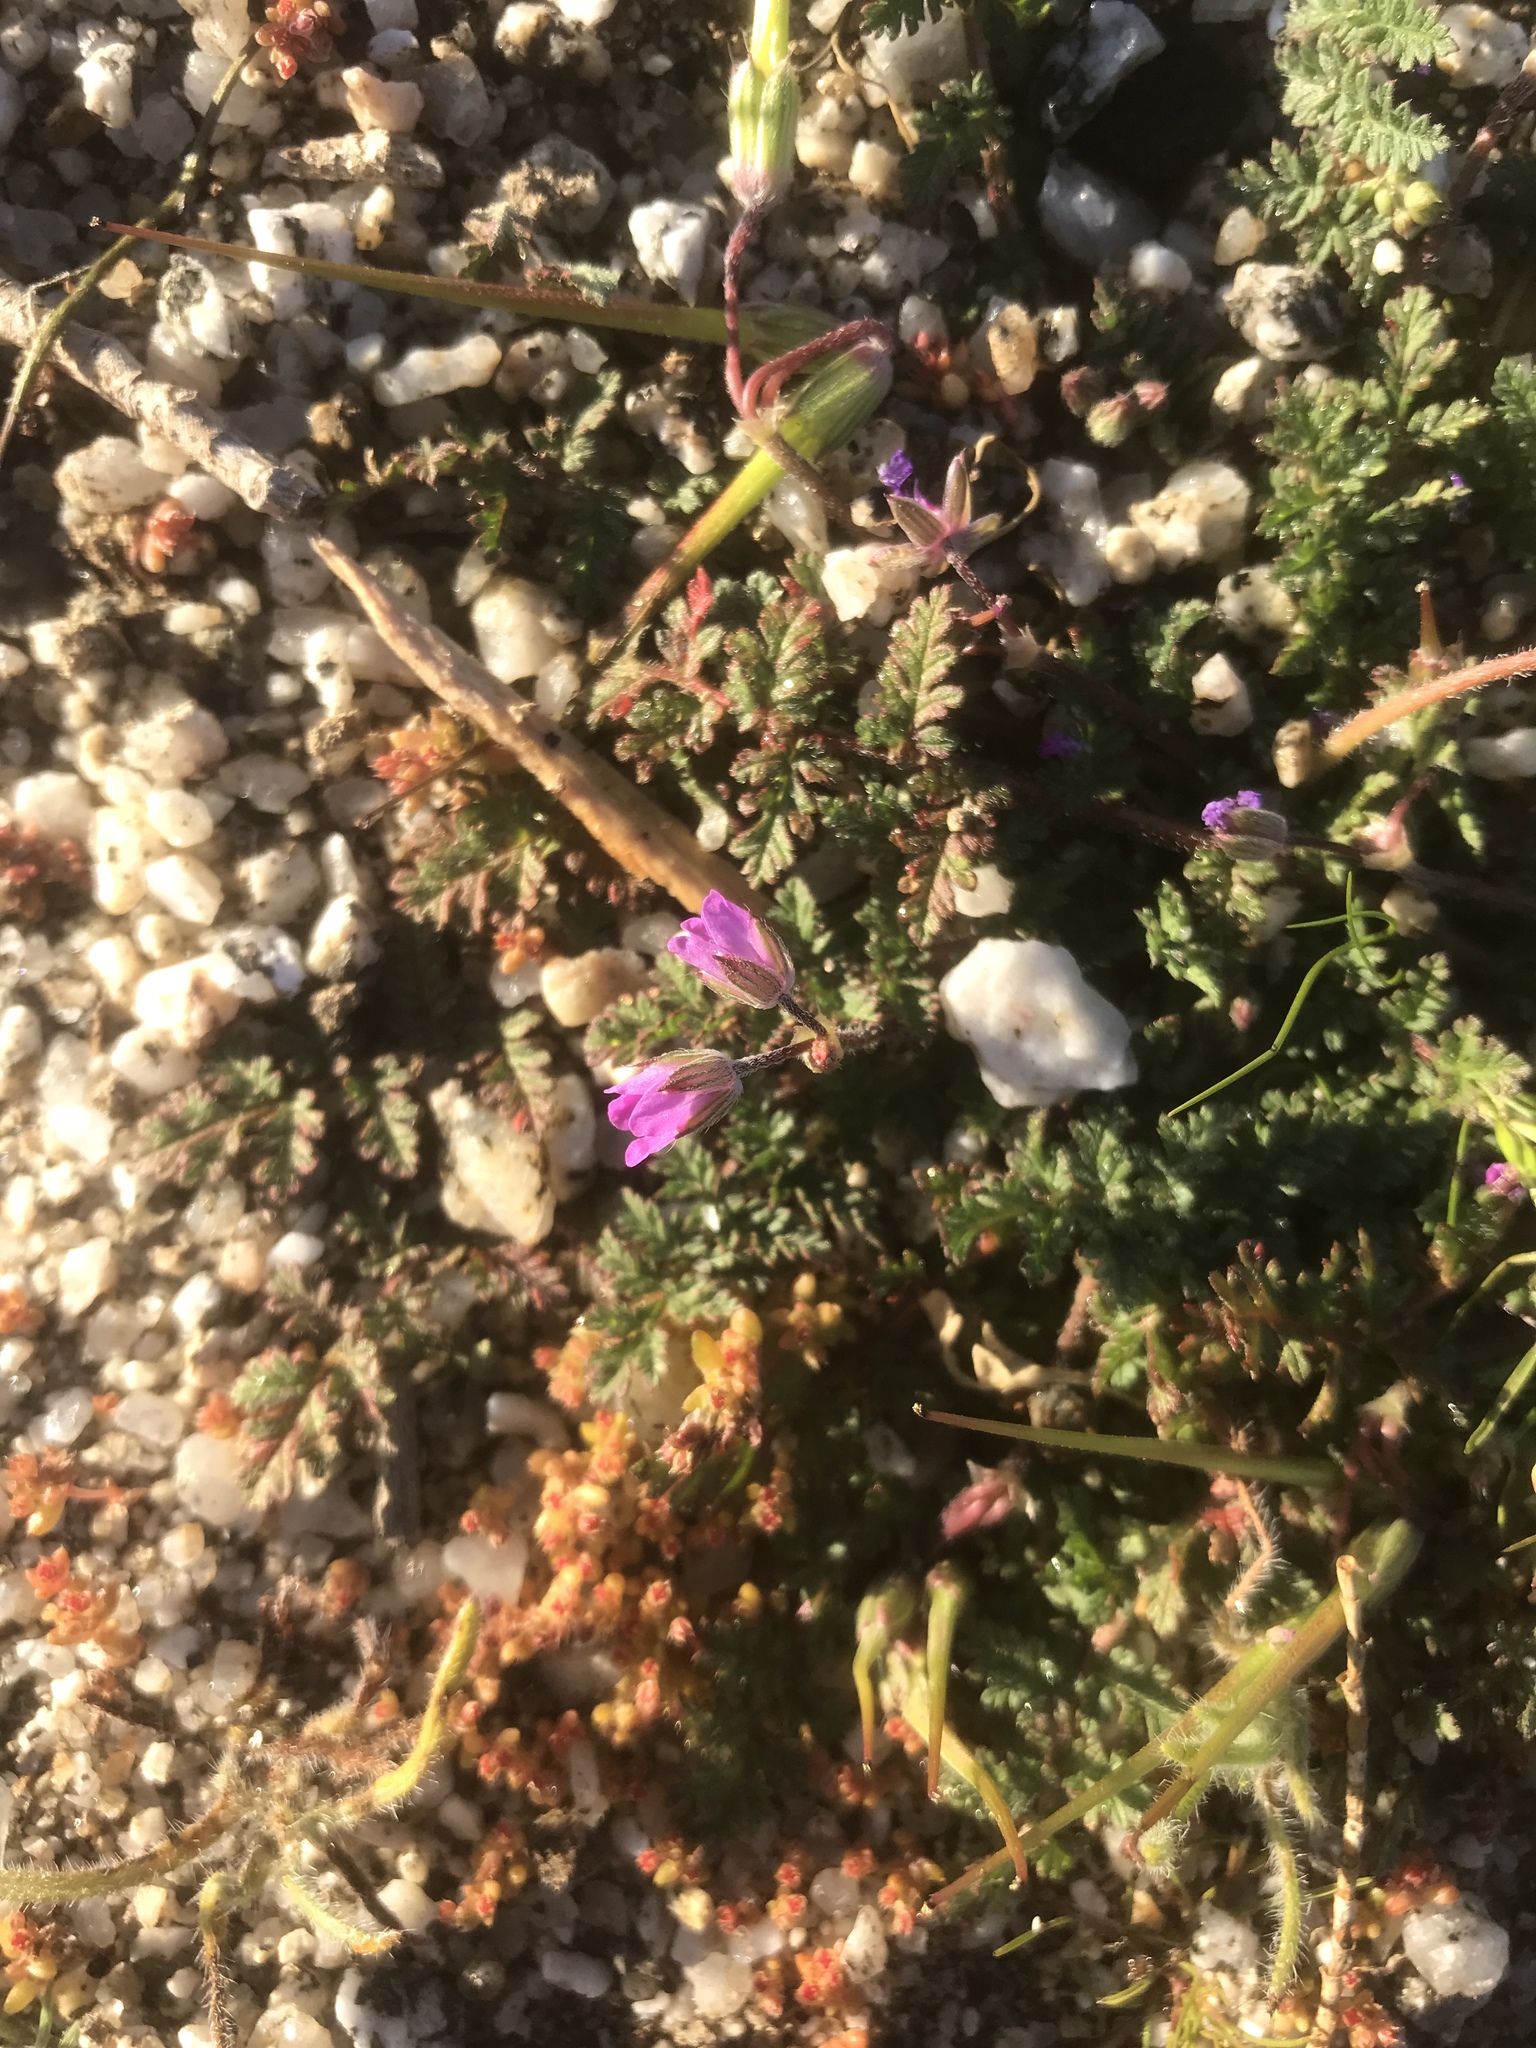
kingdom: Plantae
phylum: Tracheophyta
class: Magnoliopsida
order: Geraniales
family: Geraniaceae
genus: Erodium
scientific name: Erodium cicutarium
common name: Common stork's-bill
